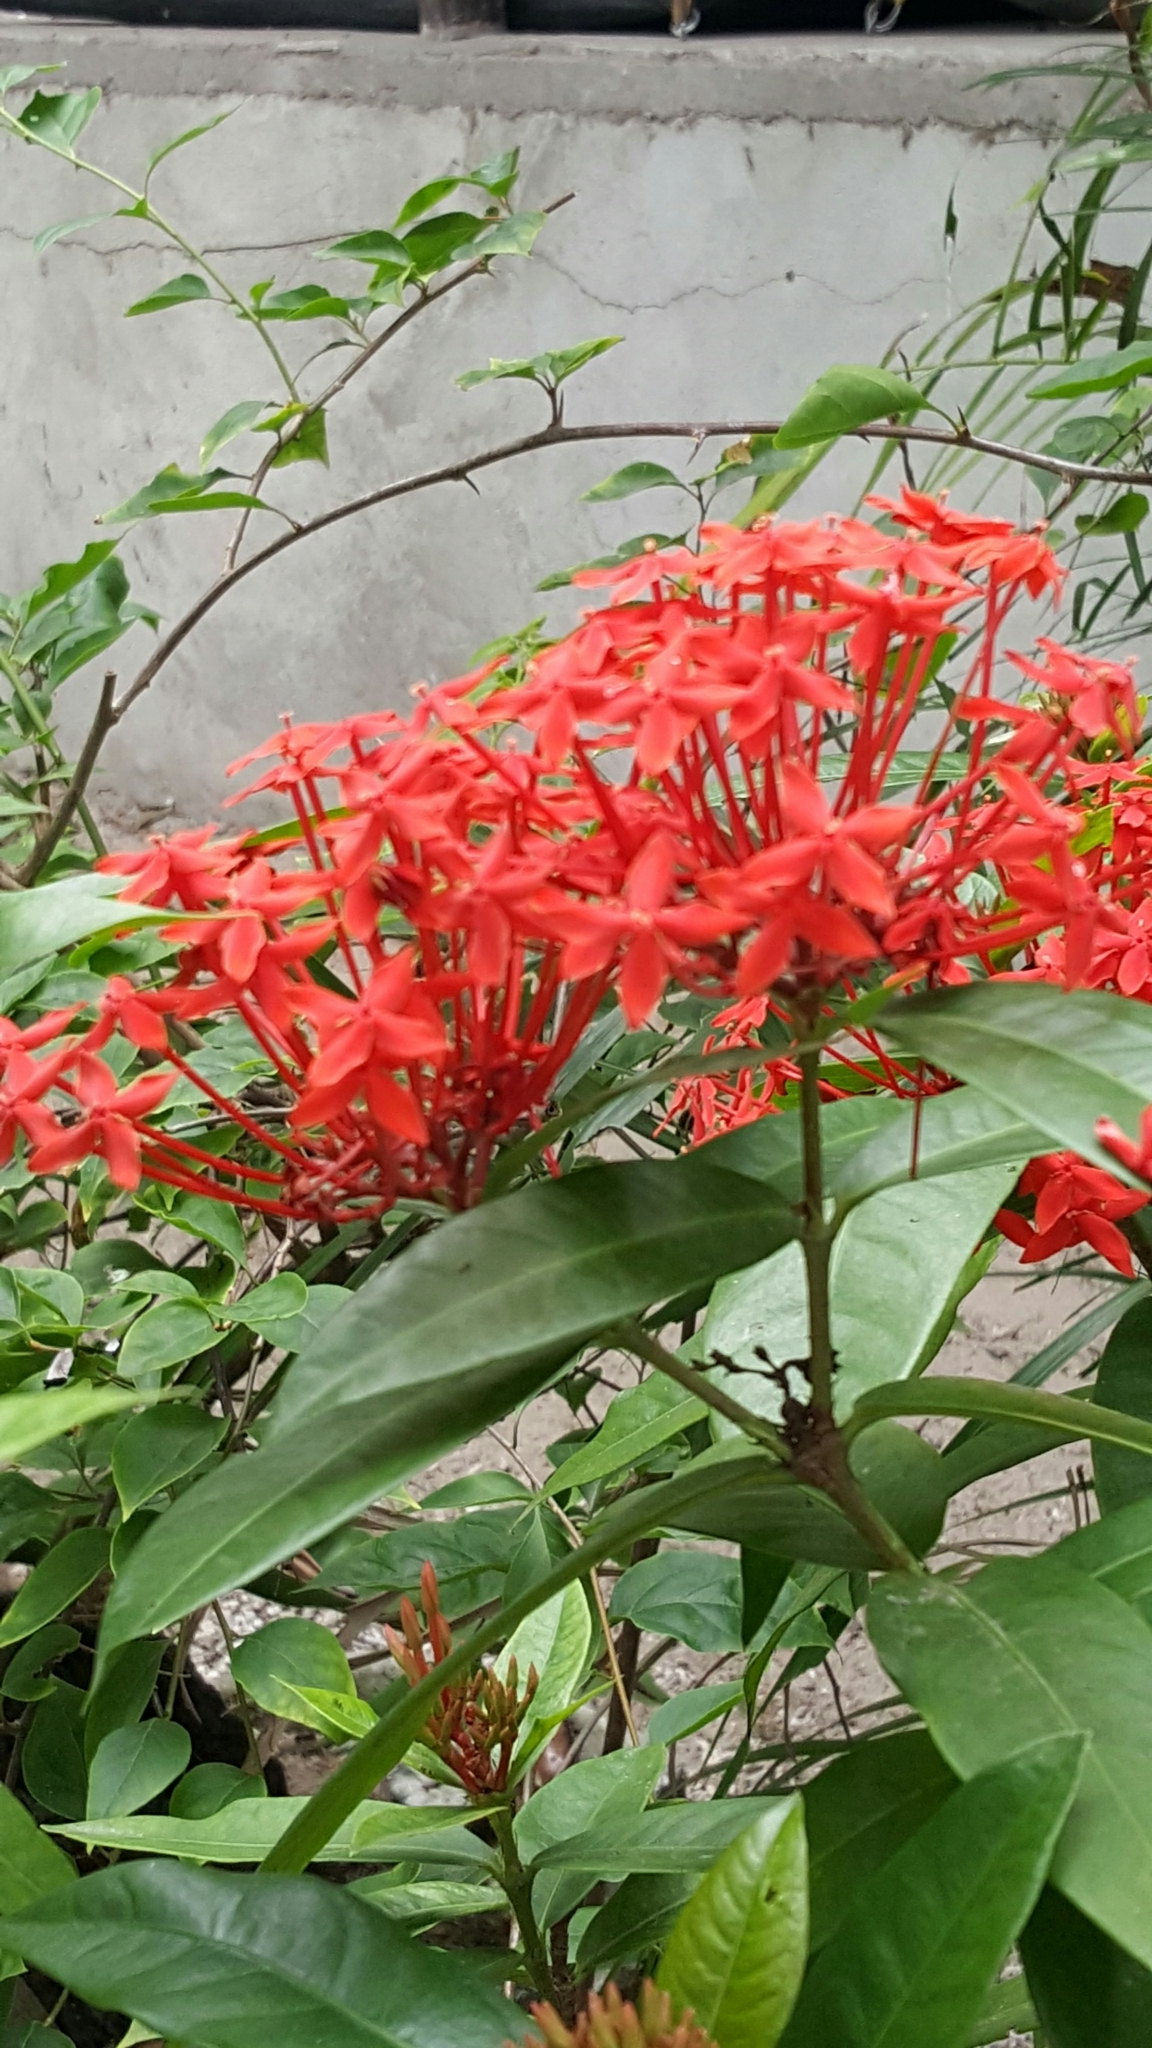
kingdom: Plantae
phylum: Tracheophyta
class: Magnoliopsida
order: Gentianales
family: Rubiaceae
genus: Ixora
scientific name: Ixora coccinea
